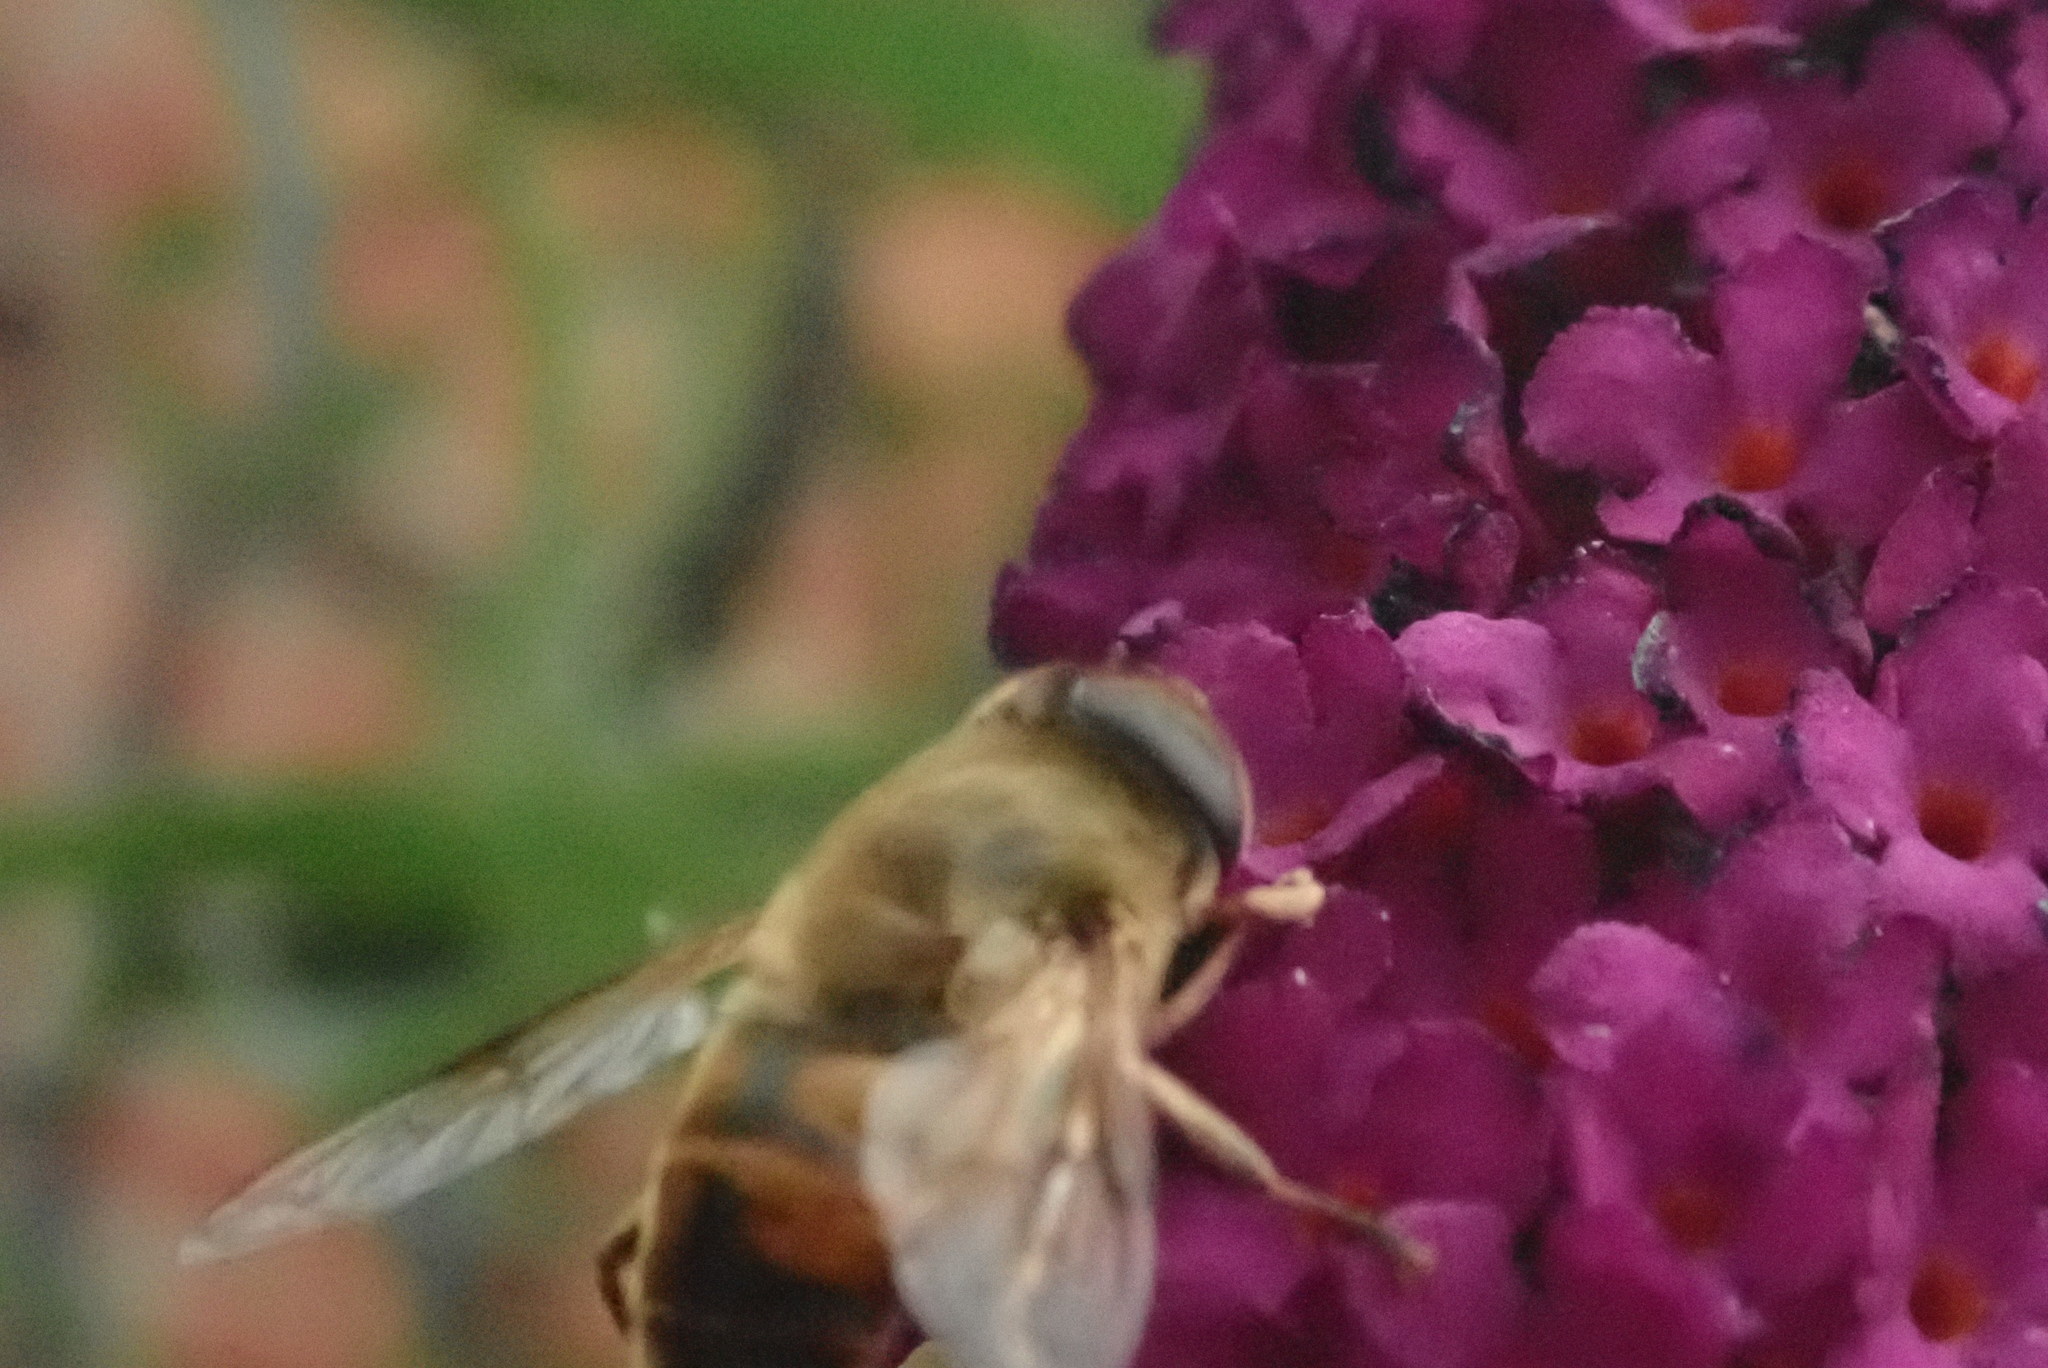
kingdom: Animalia
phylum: Arthropoda
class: Insecta
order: Diptera
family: Syrphidae
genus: Eristalis
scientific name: Eristalis tenax
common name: Drone fly
